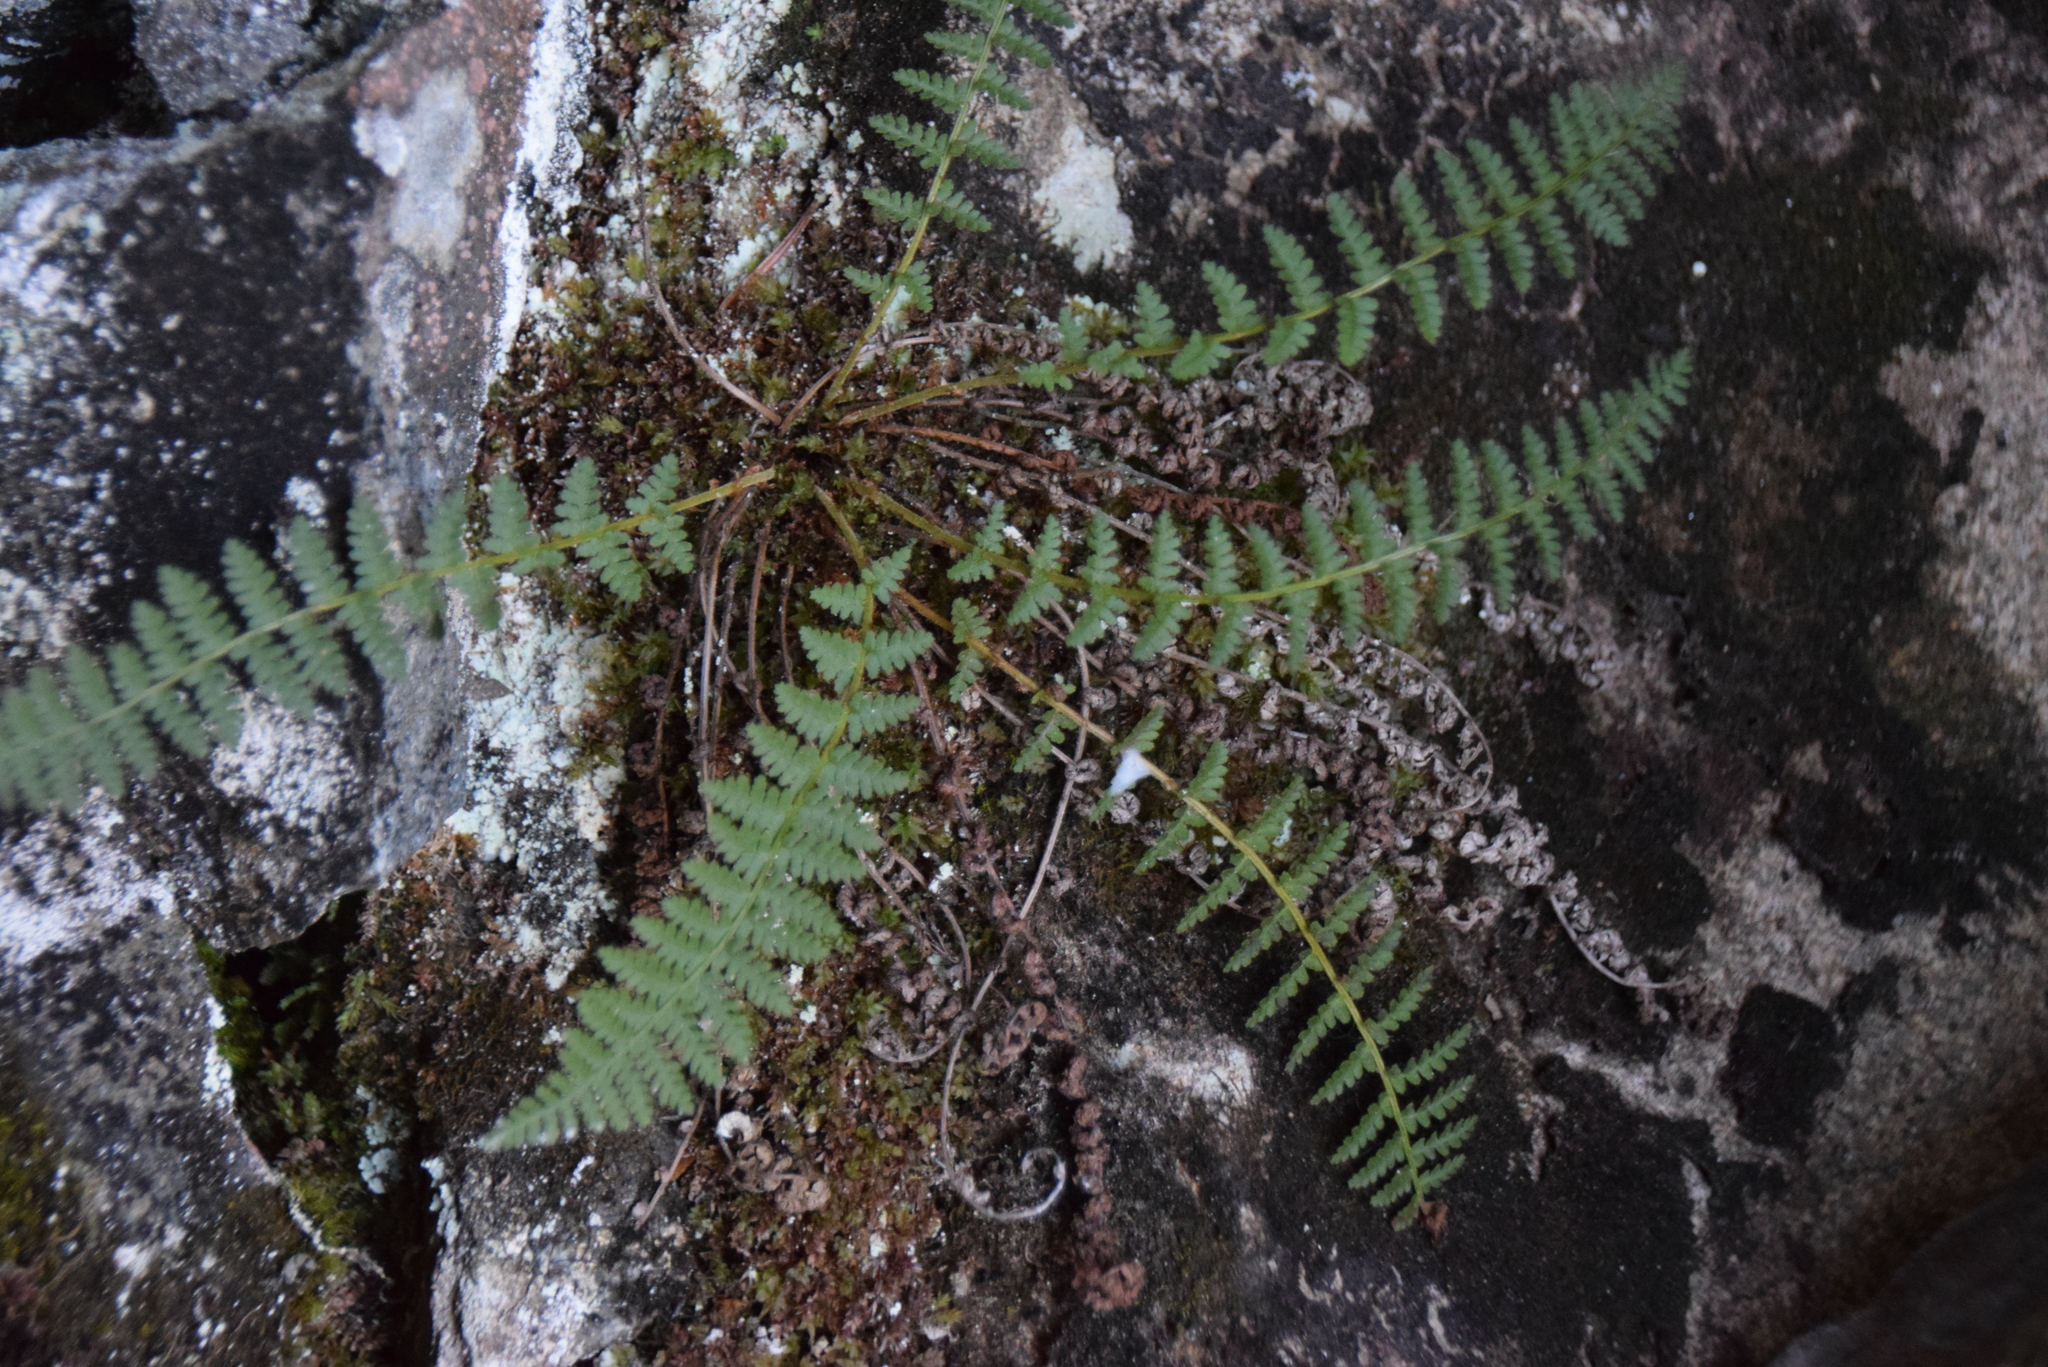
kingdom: Plantae
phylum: Tracheophyta
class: Polypodiopsida
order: Polypodiales
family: Dryopteridaceae
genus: Dryopteris
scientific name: Dryopteris fragrans
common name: Fragrant wood fern
